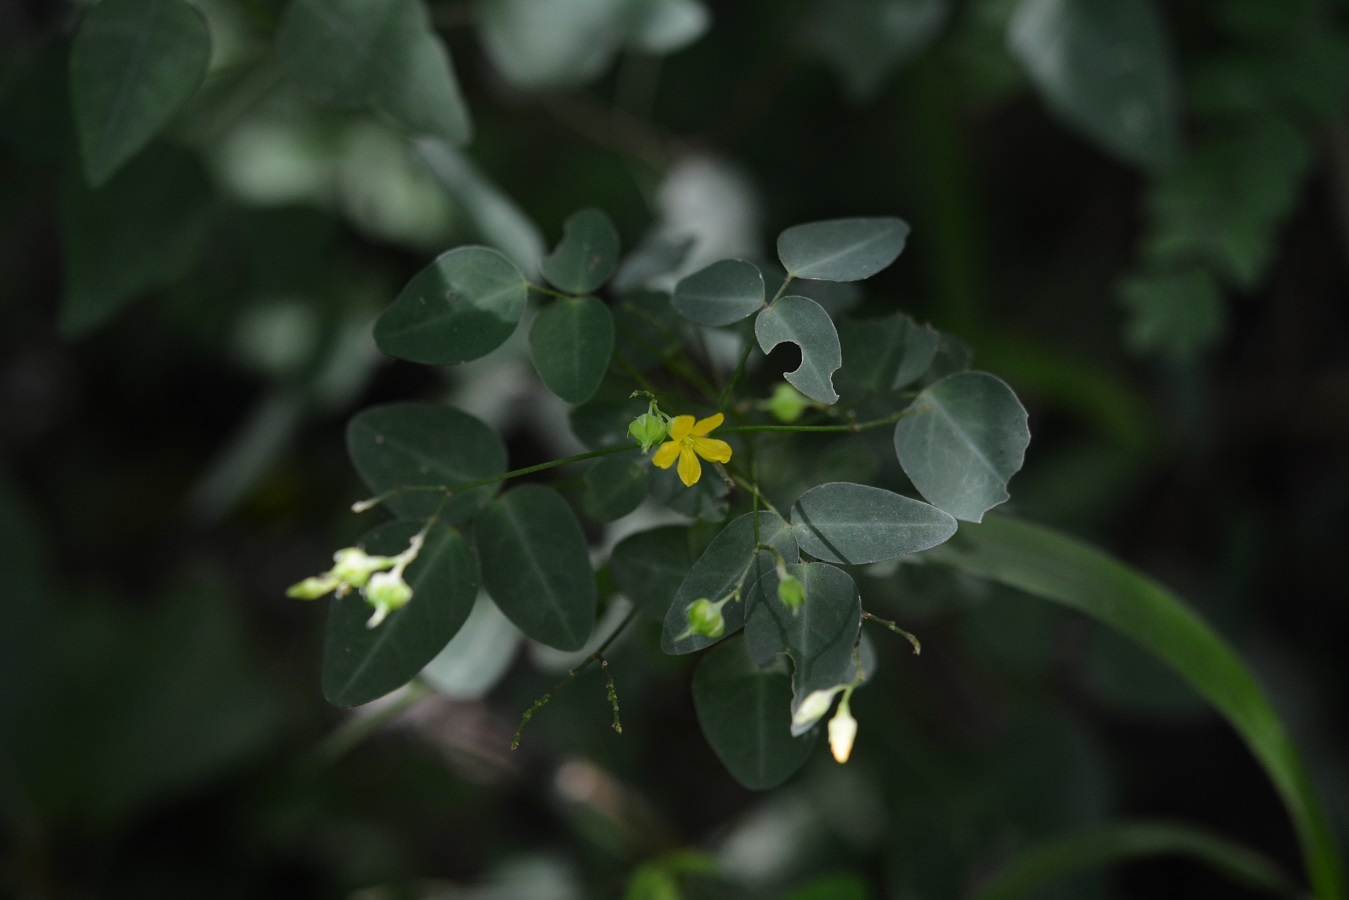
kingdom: Plantae
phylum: Tracheophyta
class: Magnoliopsida
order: Oxalidales
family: Oxalidaceae
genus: Oxalis
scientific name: Oxalis frutescens
